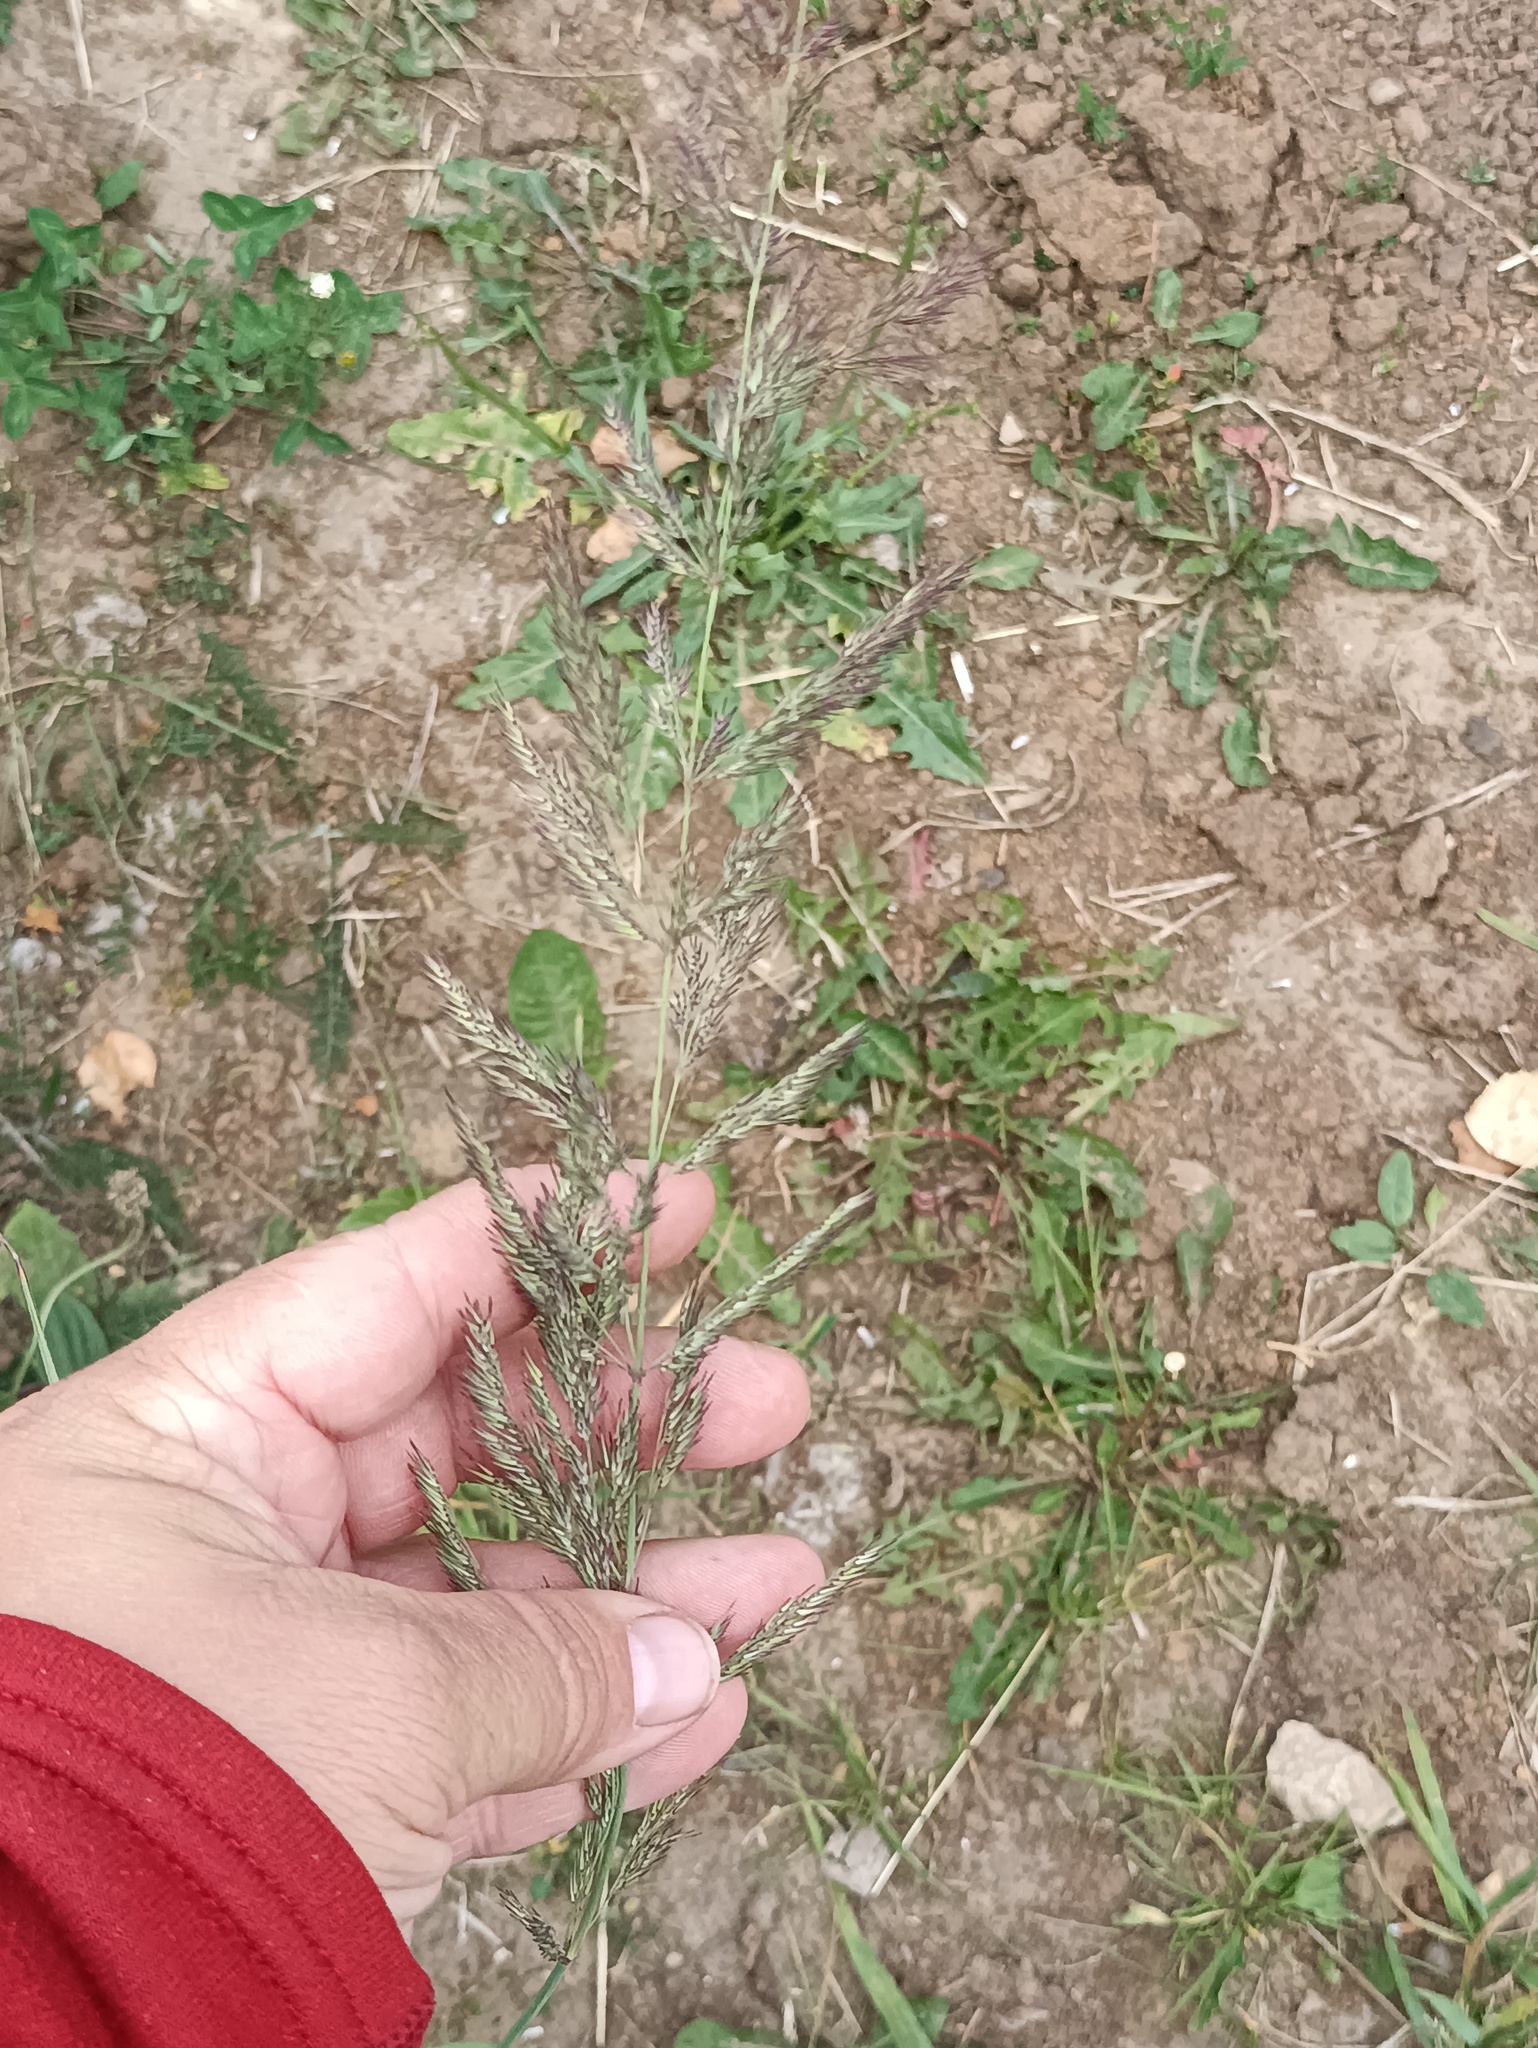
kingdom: Plantae
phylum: Tracheophyta
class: Liliopsida
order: Poales
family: Poaceae
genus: Calamagrostis
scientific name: Calamagrostis epigejos
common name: Wood small-reed
